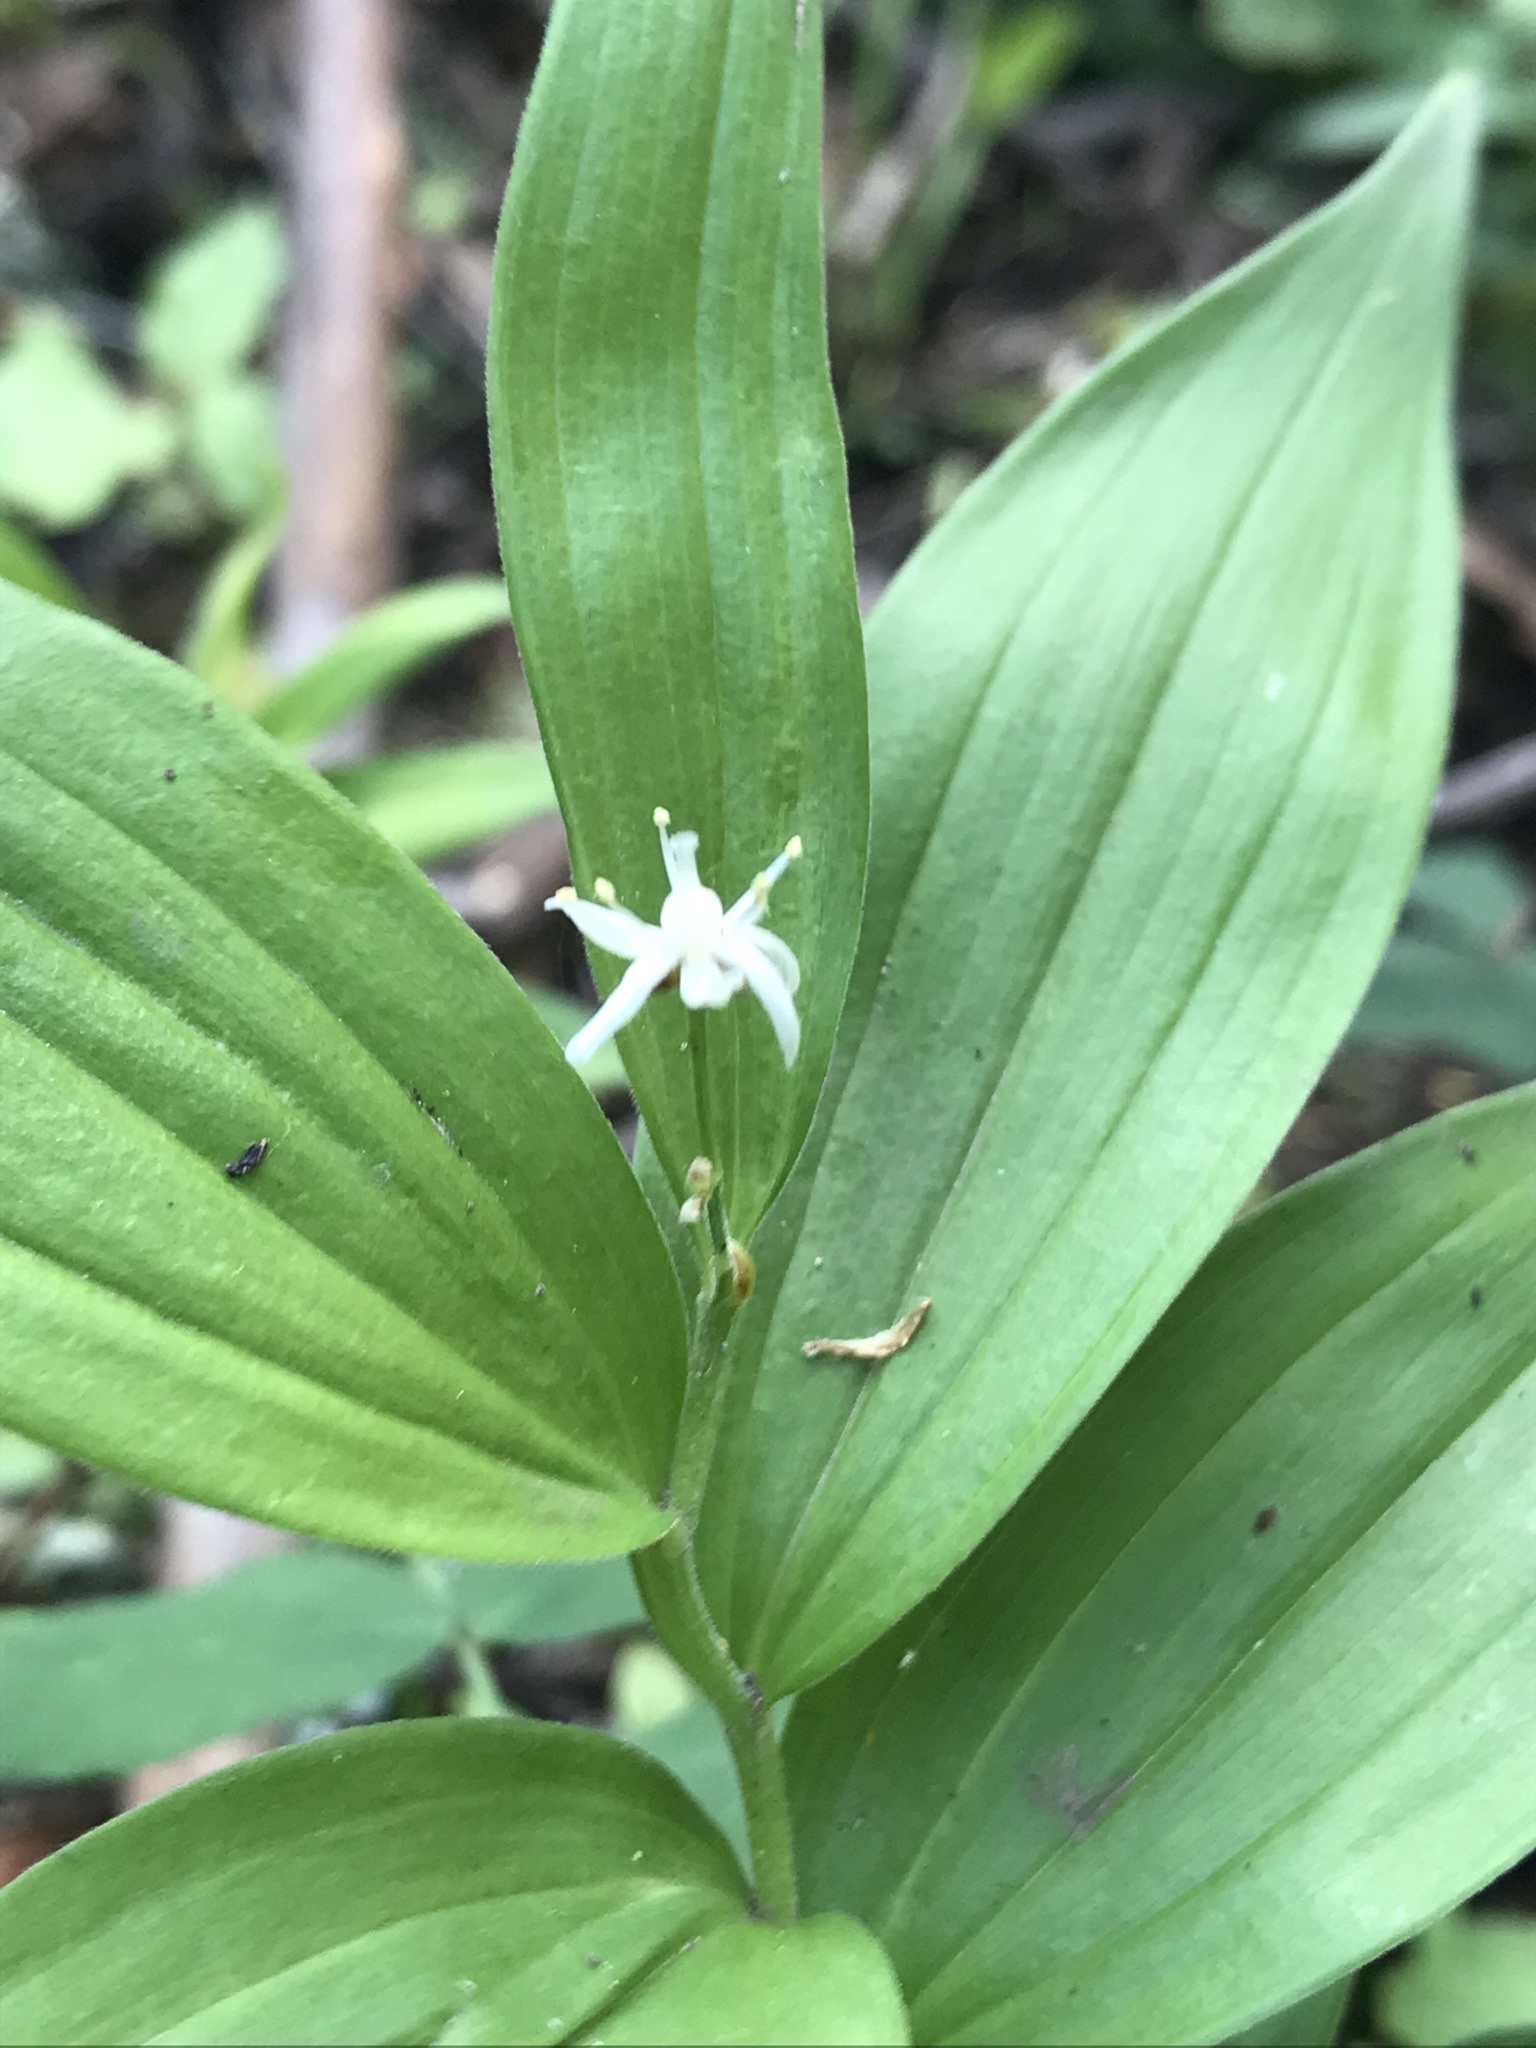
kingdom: Plantae
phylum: Tracheophyta
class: Liliopsida
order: Asparagales
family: Asparagaceae
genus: Maianthemum
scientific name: Maianthemum stellatum
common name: Little false solomon's seal
